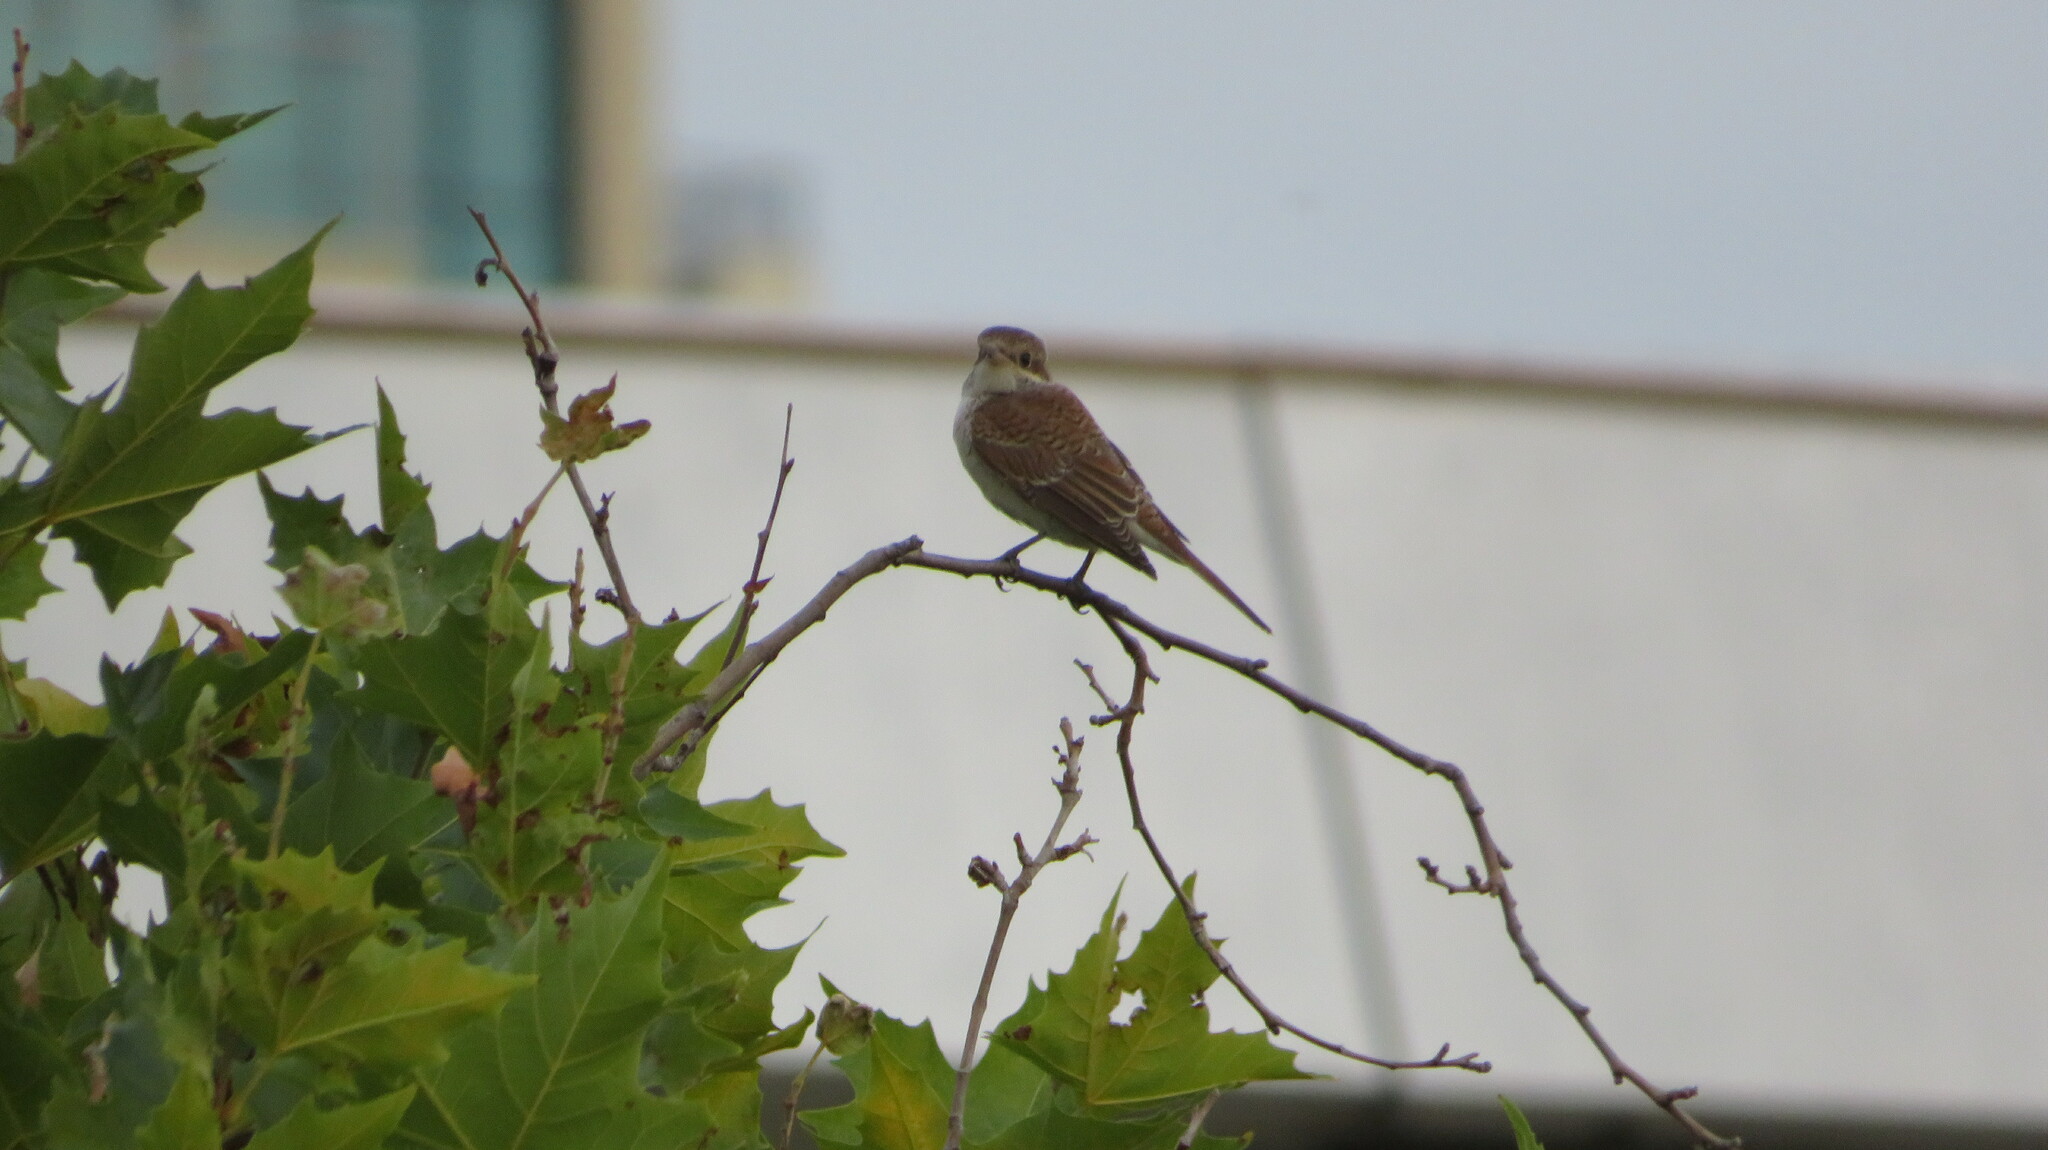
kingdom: Animalia
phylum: Chordata
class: Aves
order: Passeriformes
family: Laniidae
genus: Lanius
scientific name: Lanius collurio
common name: Red-backed shrike
